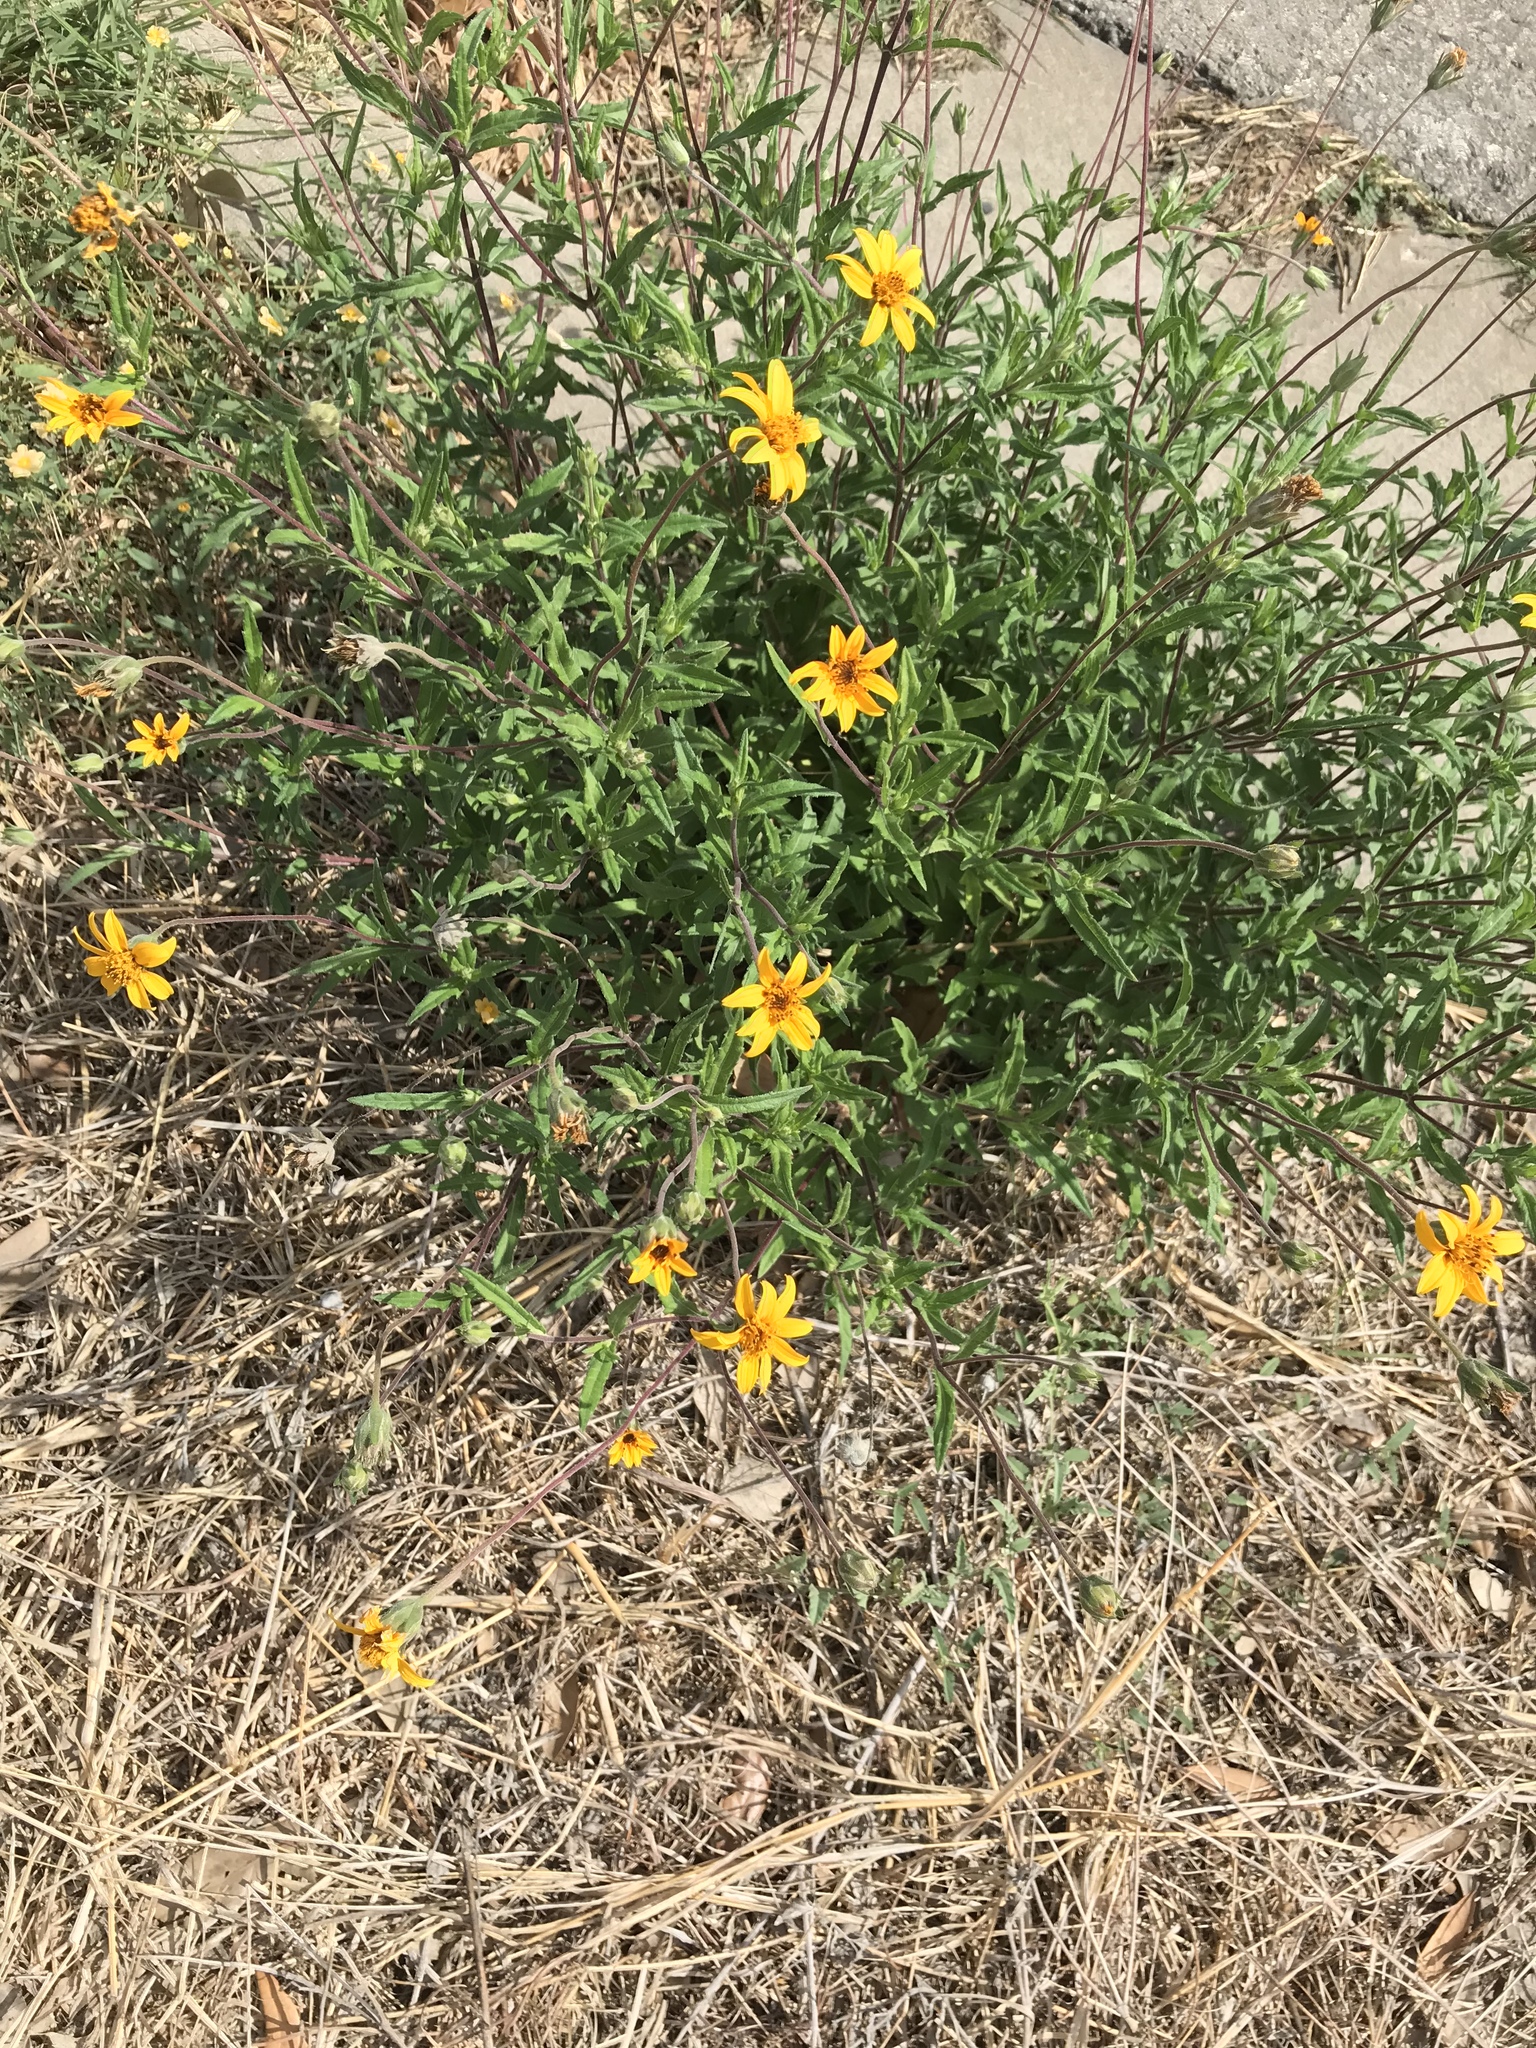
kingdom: Plantae
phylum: Tracheophyta
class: Magnoliopsida
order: Asterales
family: Asteraceae
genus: Wedelia
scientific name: Wedelia acapulcensis
